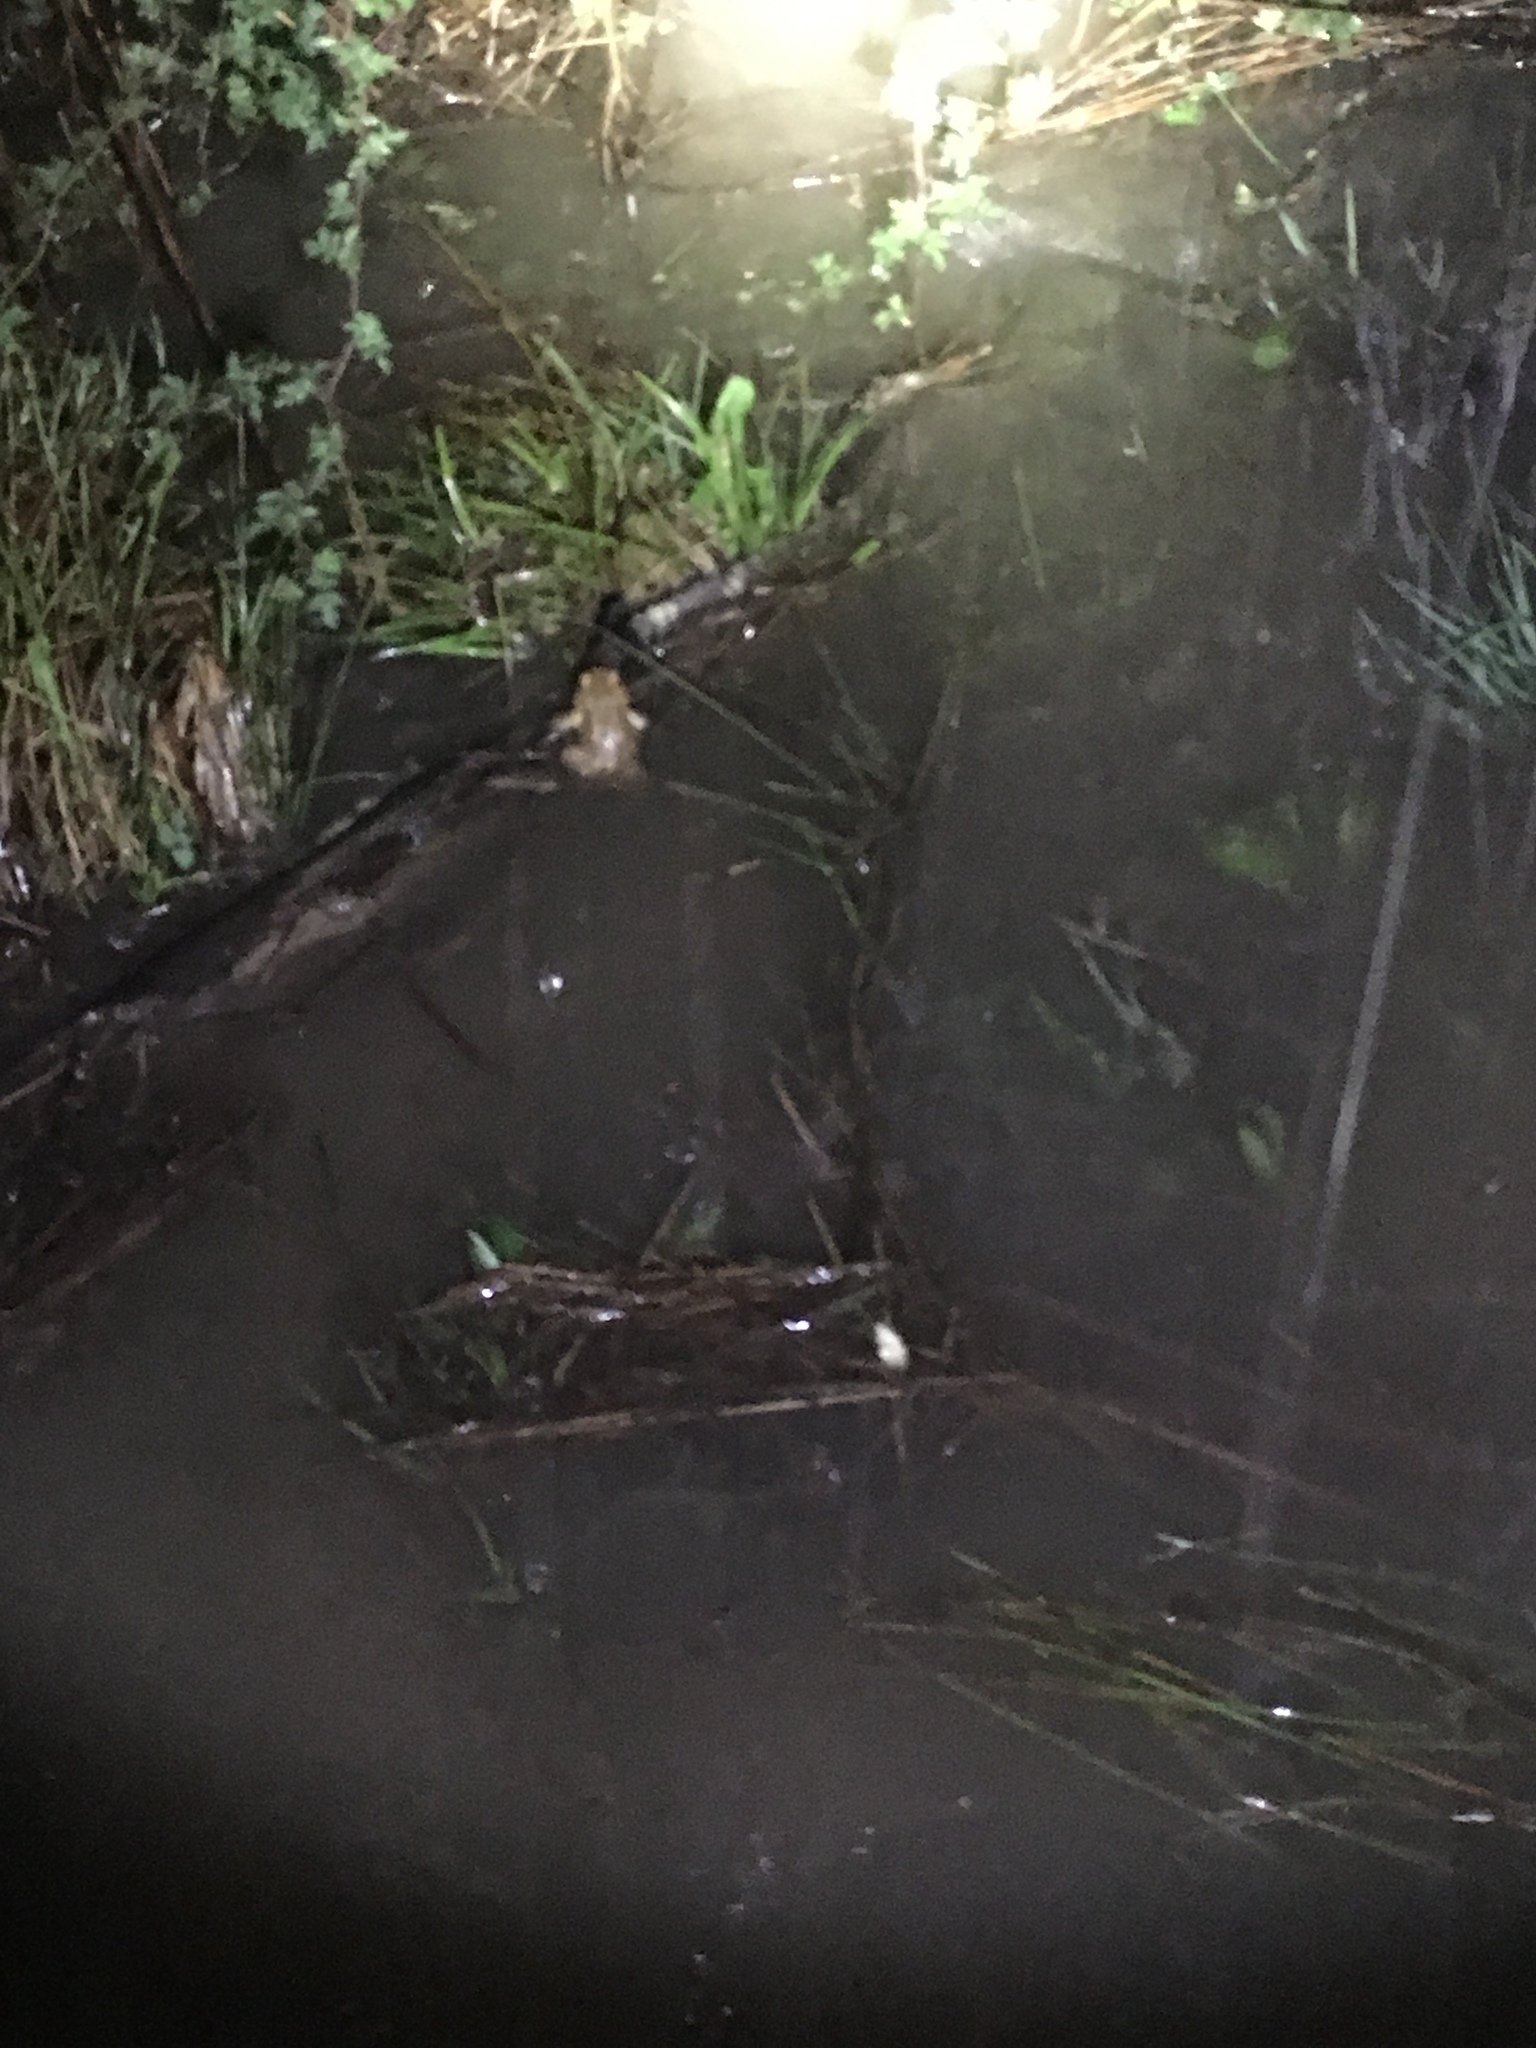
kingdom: Animalia
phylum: Chordata
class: Amphibia
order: Anura
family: Bufonidae
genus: Anaxyrus
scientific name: Anaxyrus americanus
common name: American toad
